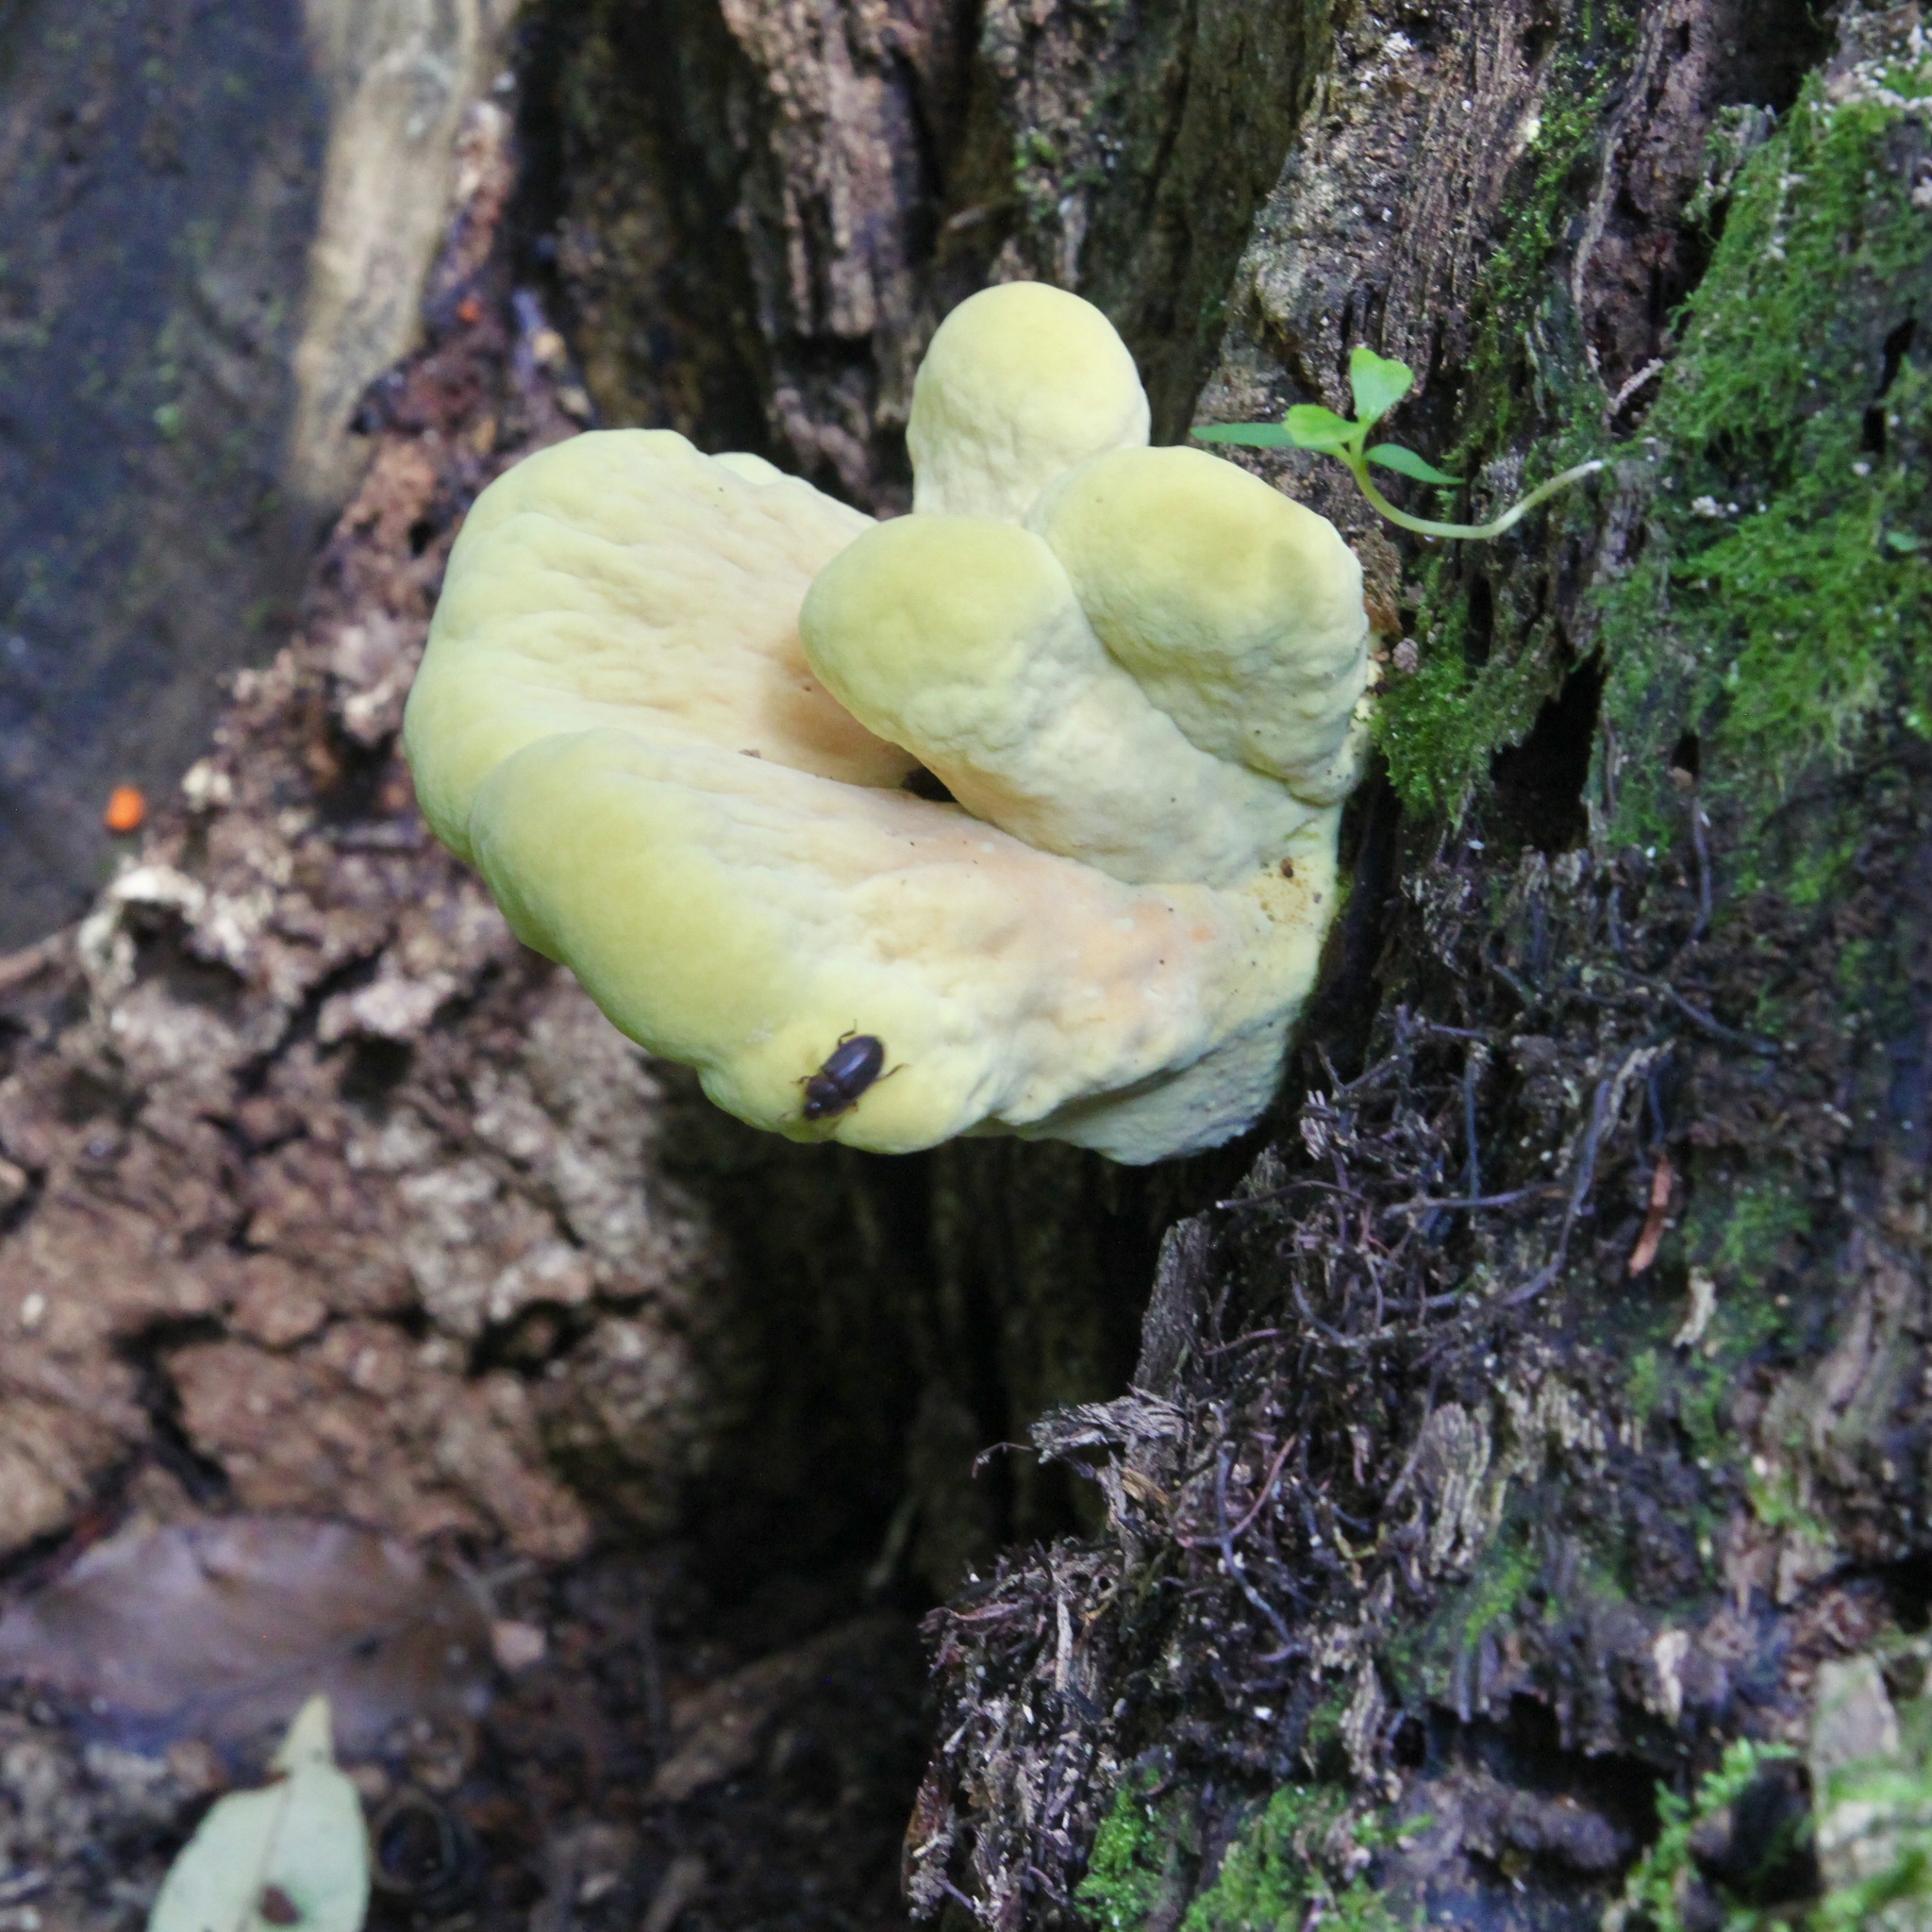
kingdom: Fungi
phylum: Basidiomycota
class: Agaricomycetes
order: Polyporales
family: Laetiporaceae
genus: Laetiporus
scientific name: Laetiporus sulphureus
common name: Chicken of the woods
